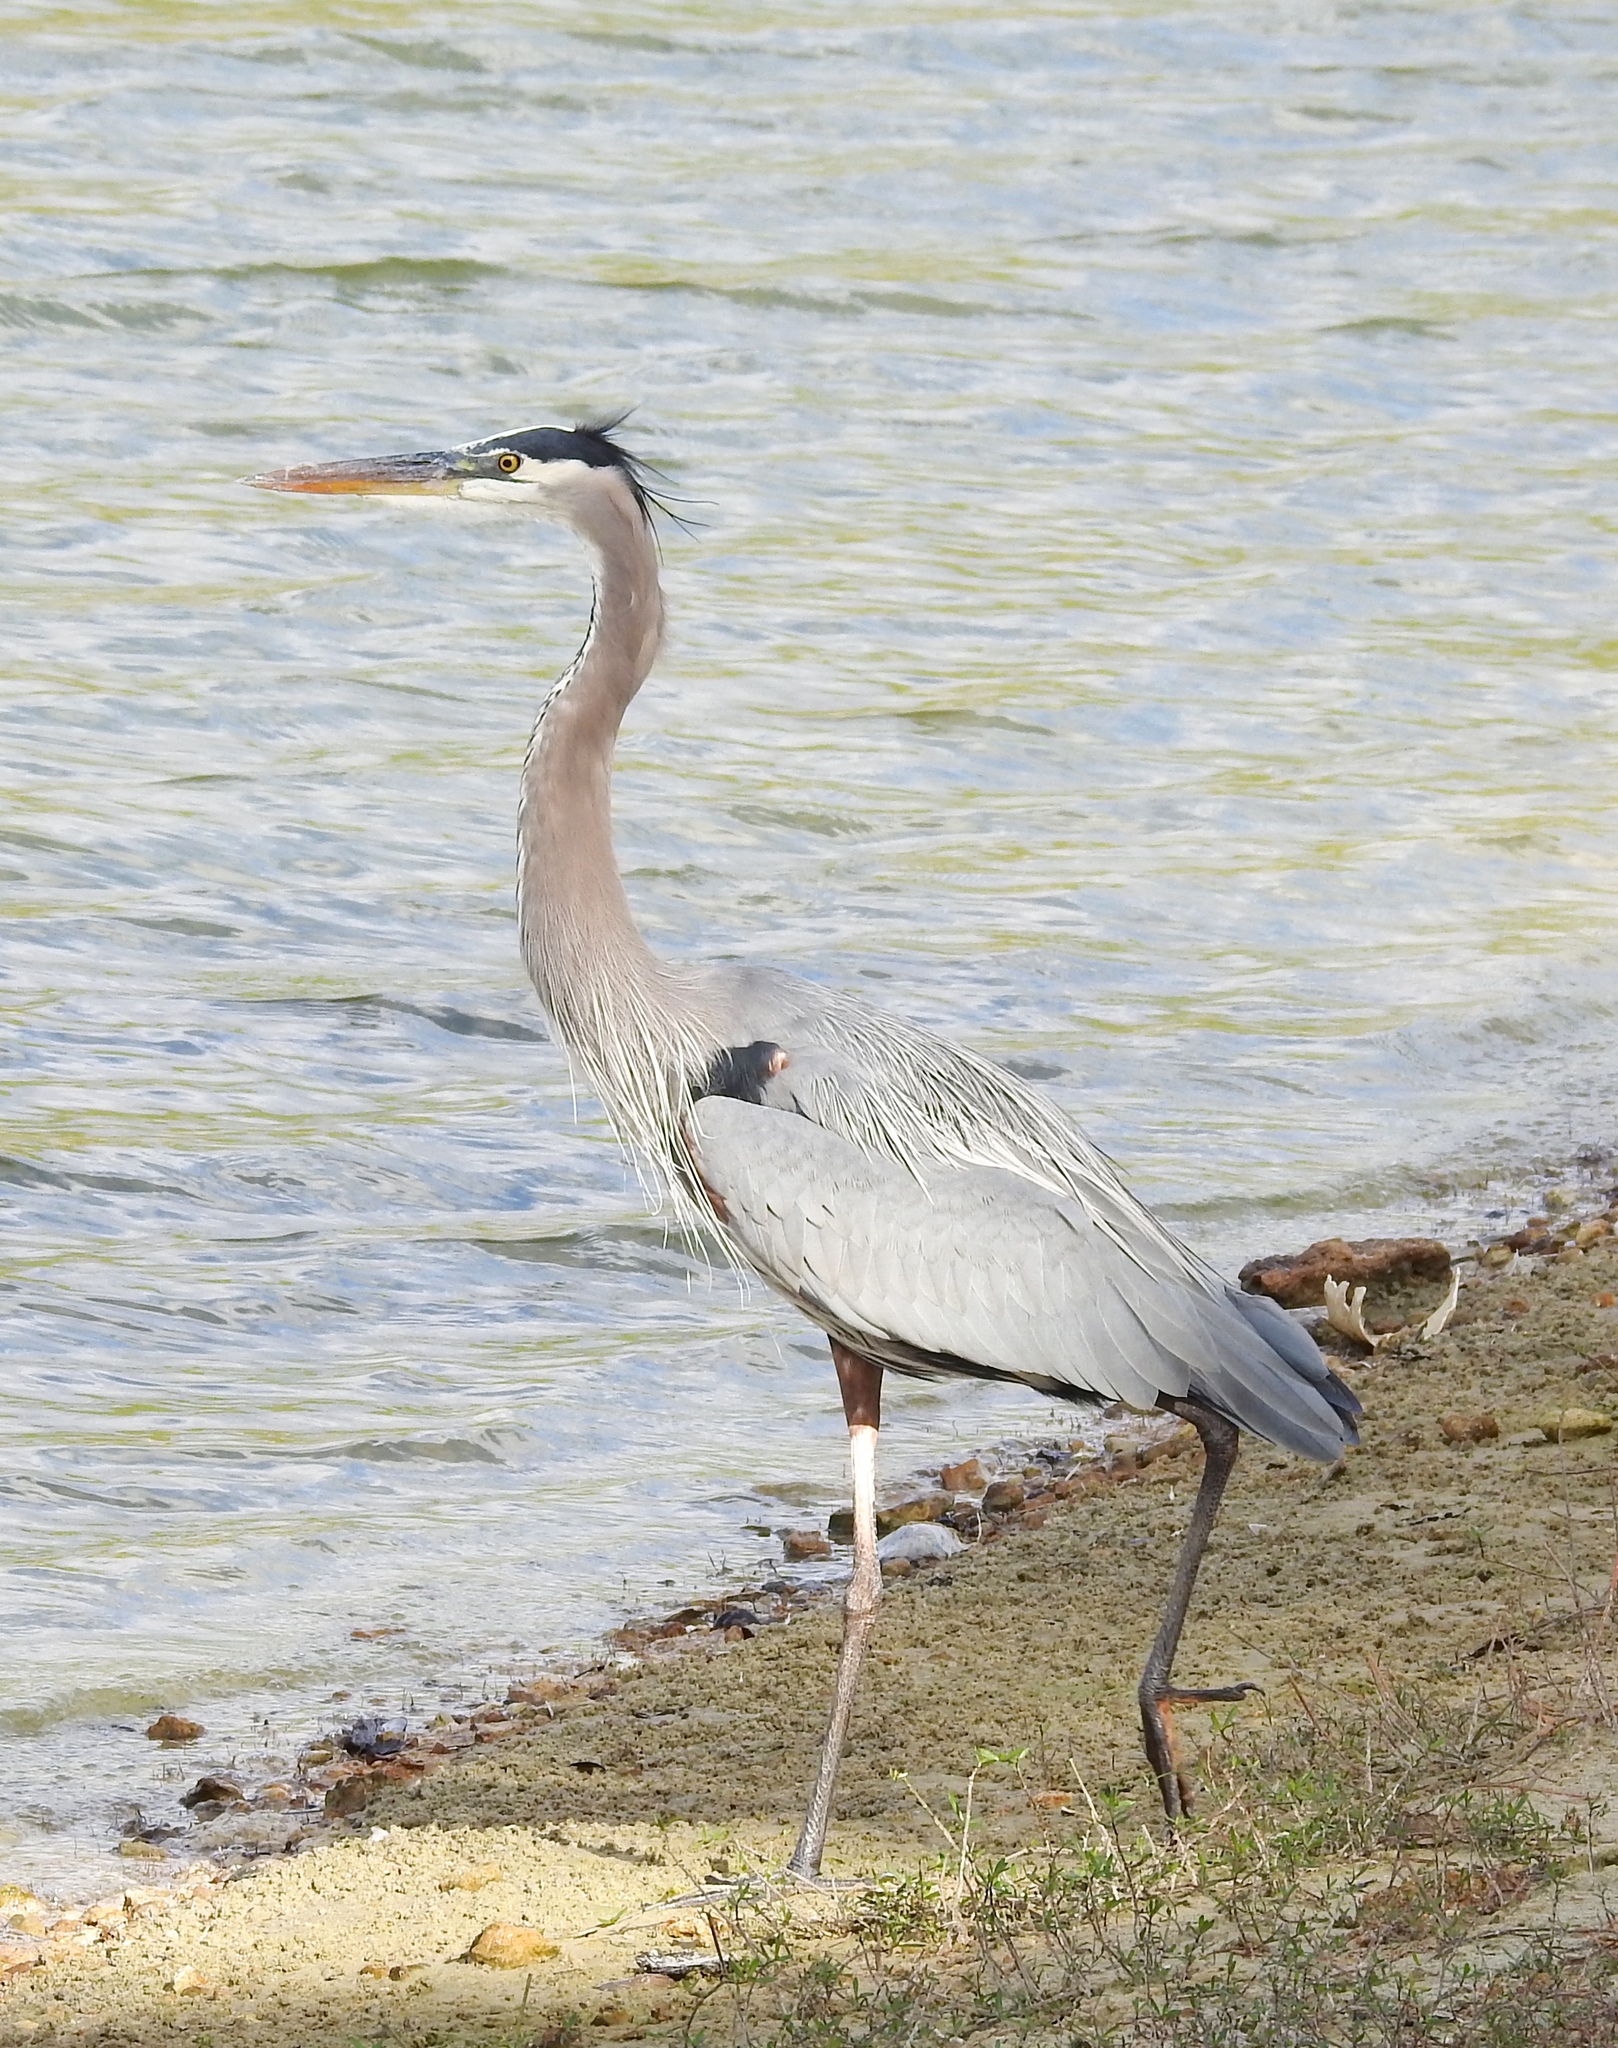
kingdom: Animalia
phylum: Chordata
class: Aves
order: Pelecaniformes
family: Ardeidae
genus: Ardea
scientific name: Ardea herodias
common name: Great blue heron
